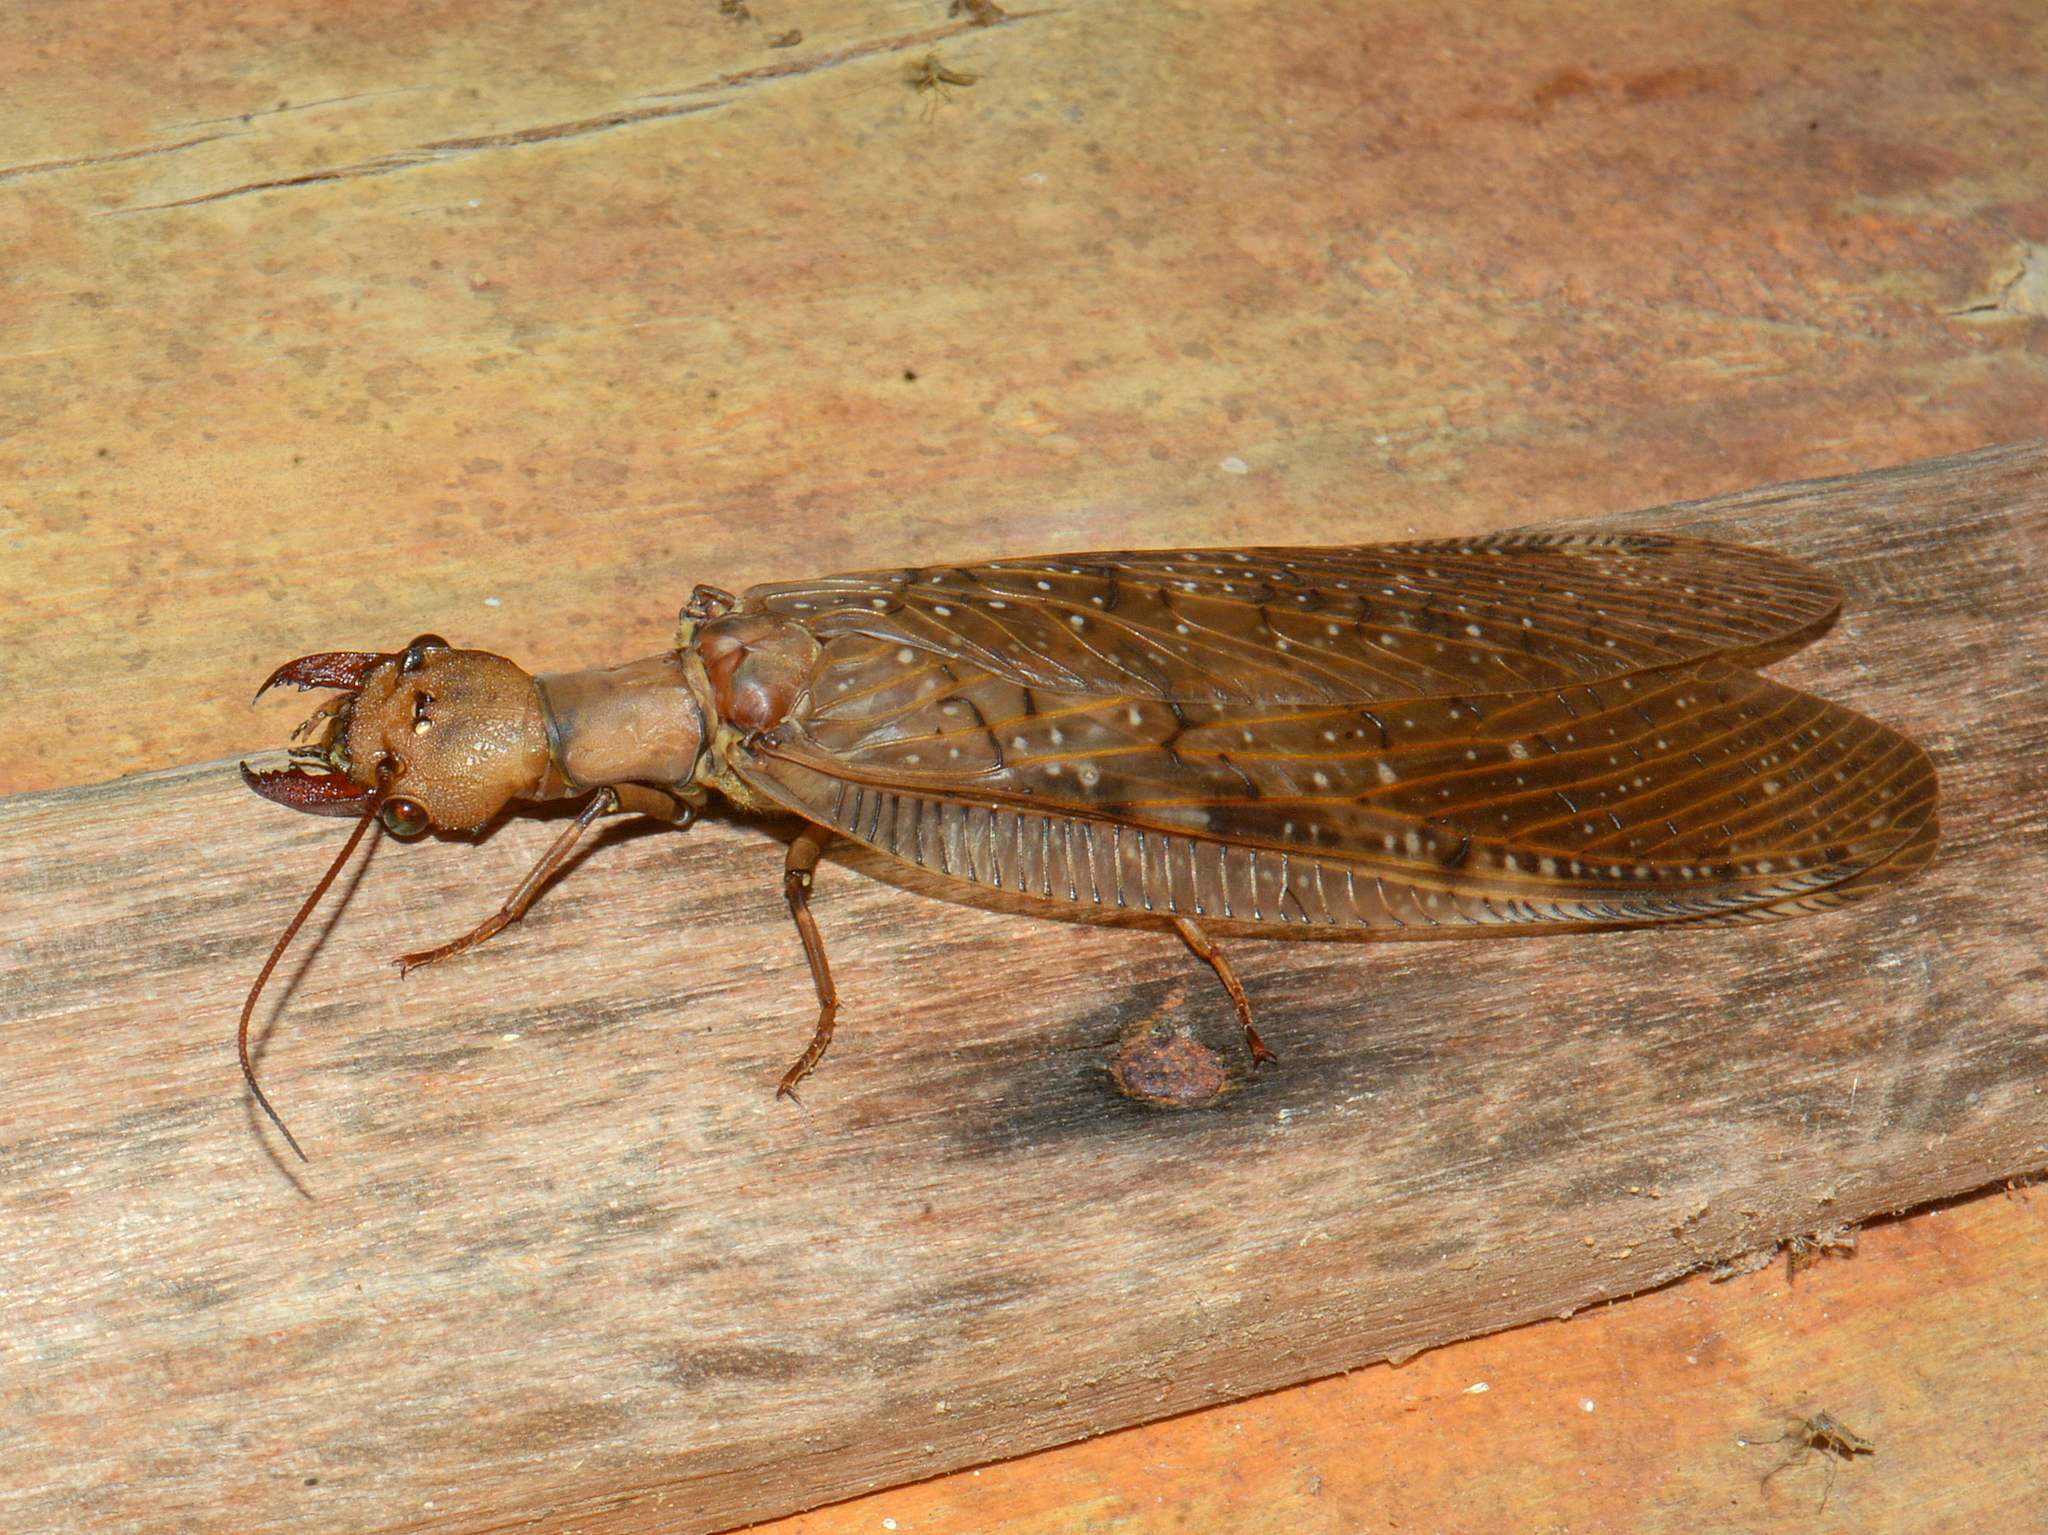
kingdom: Animalia
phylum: Arthropoda
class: Insecta
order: Megaloptera
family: Corydalidae
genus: Corydalus
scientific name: Corydalus australis
